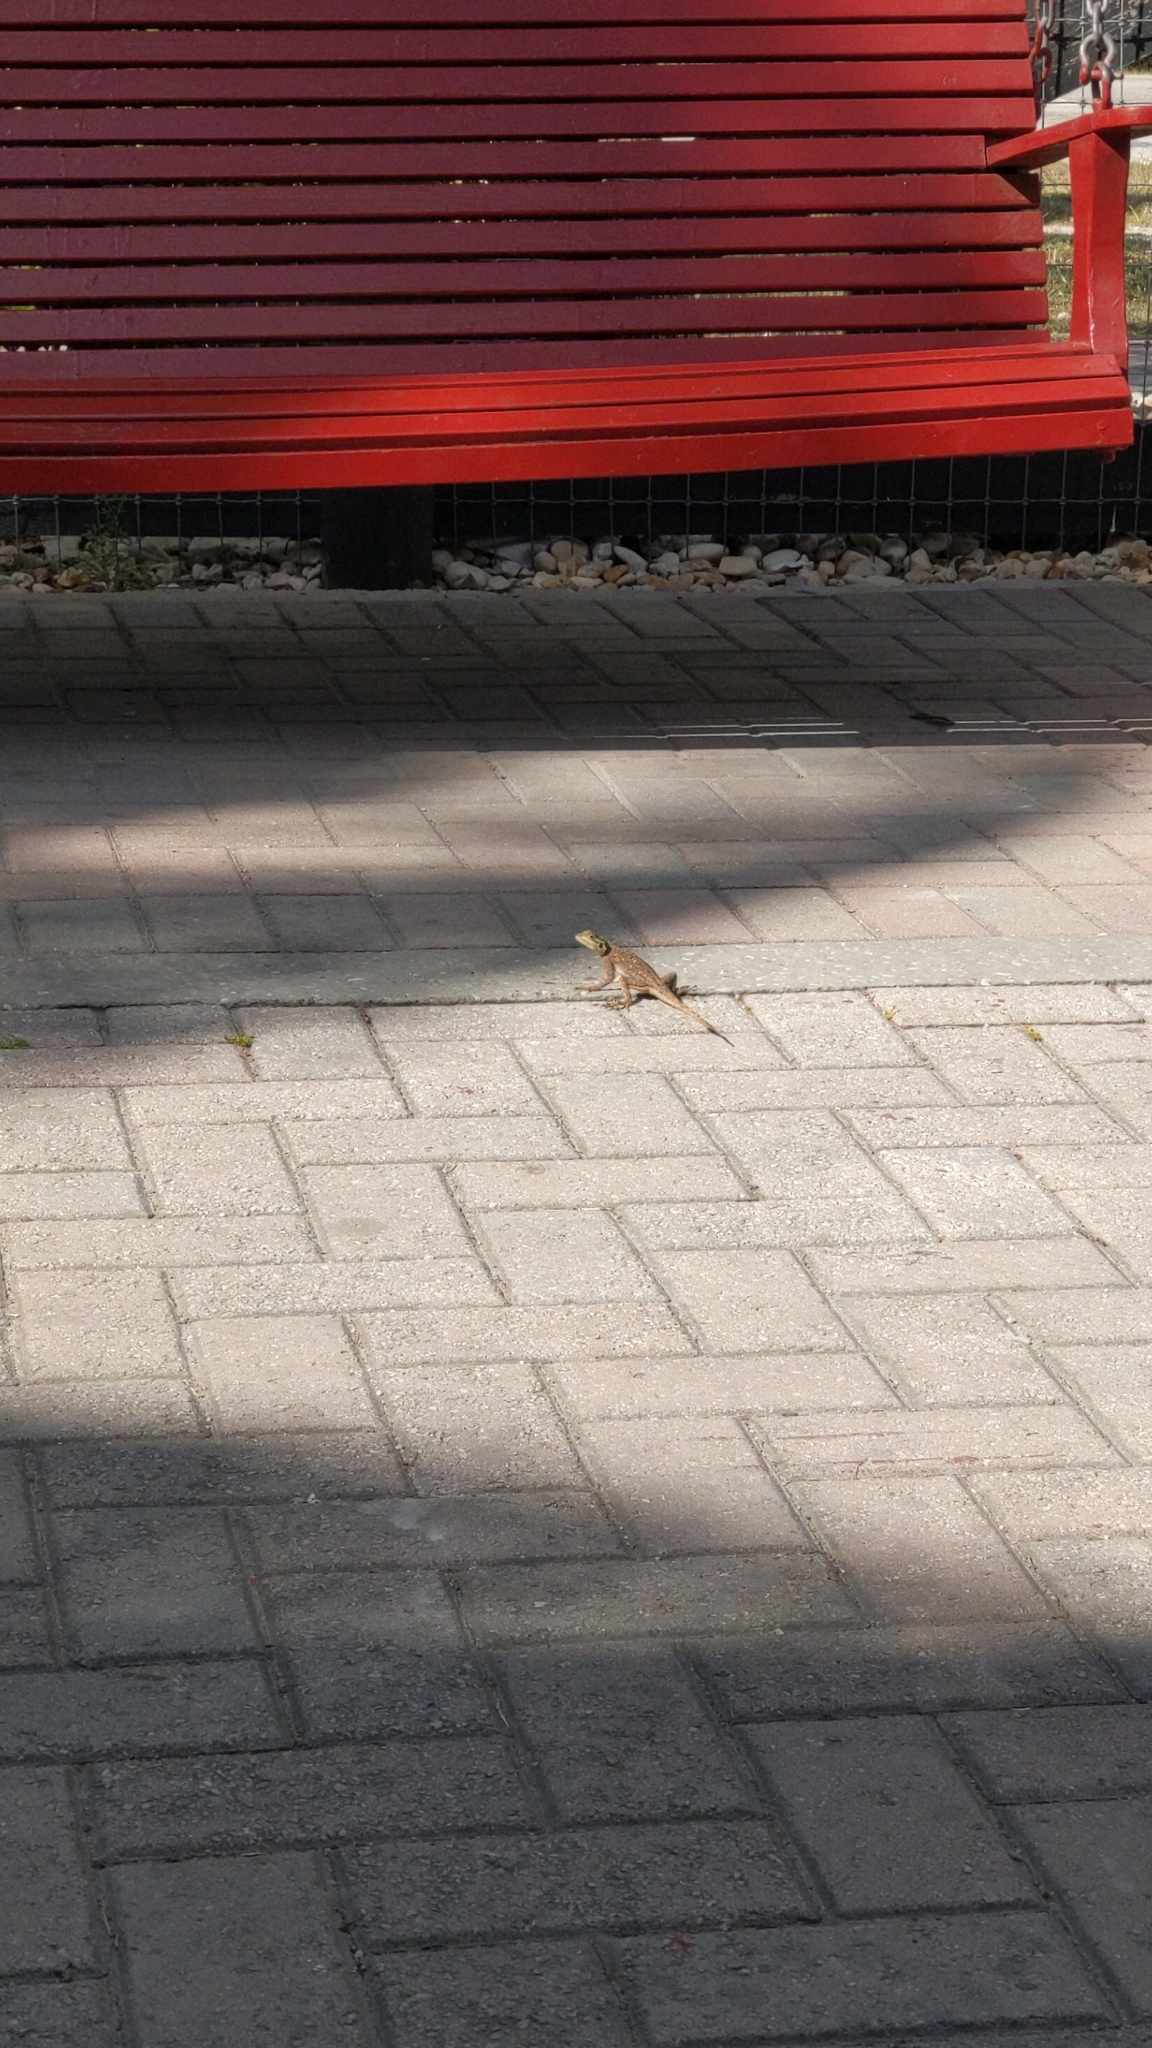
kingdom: Animalia
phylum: Chordata
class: Squamata
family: Agamidae
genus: Agama
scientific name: Agama picticauda
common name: Red-headed agama
